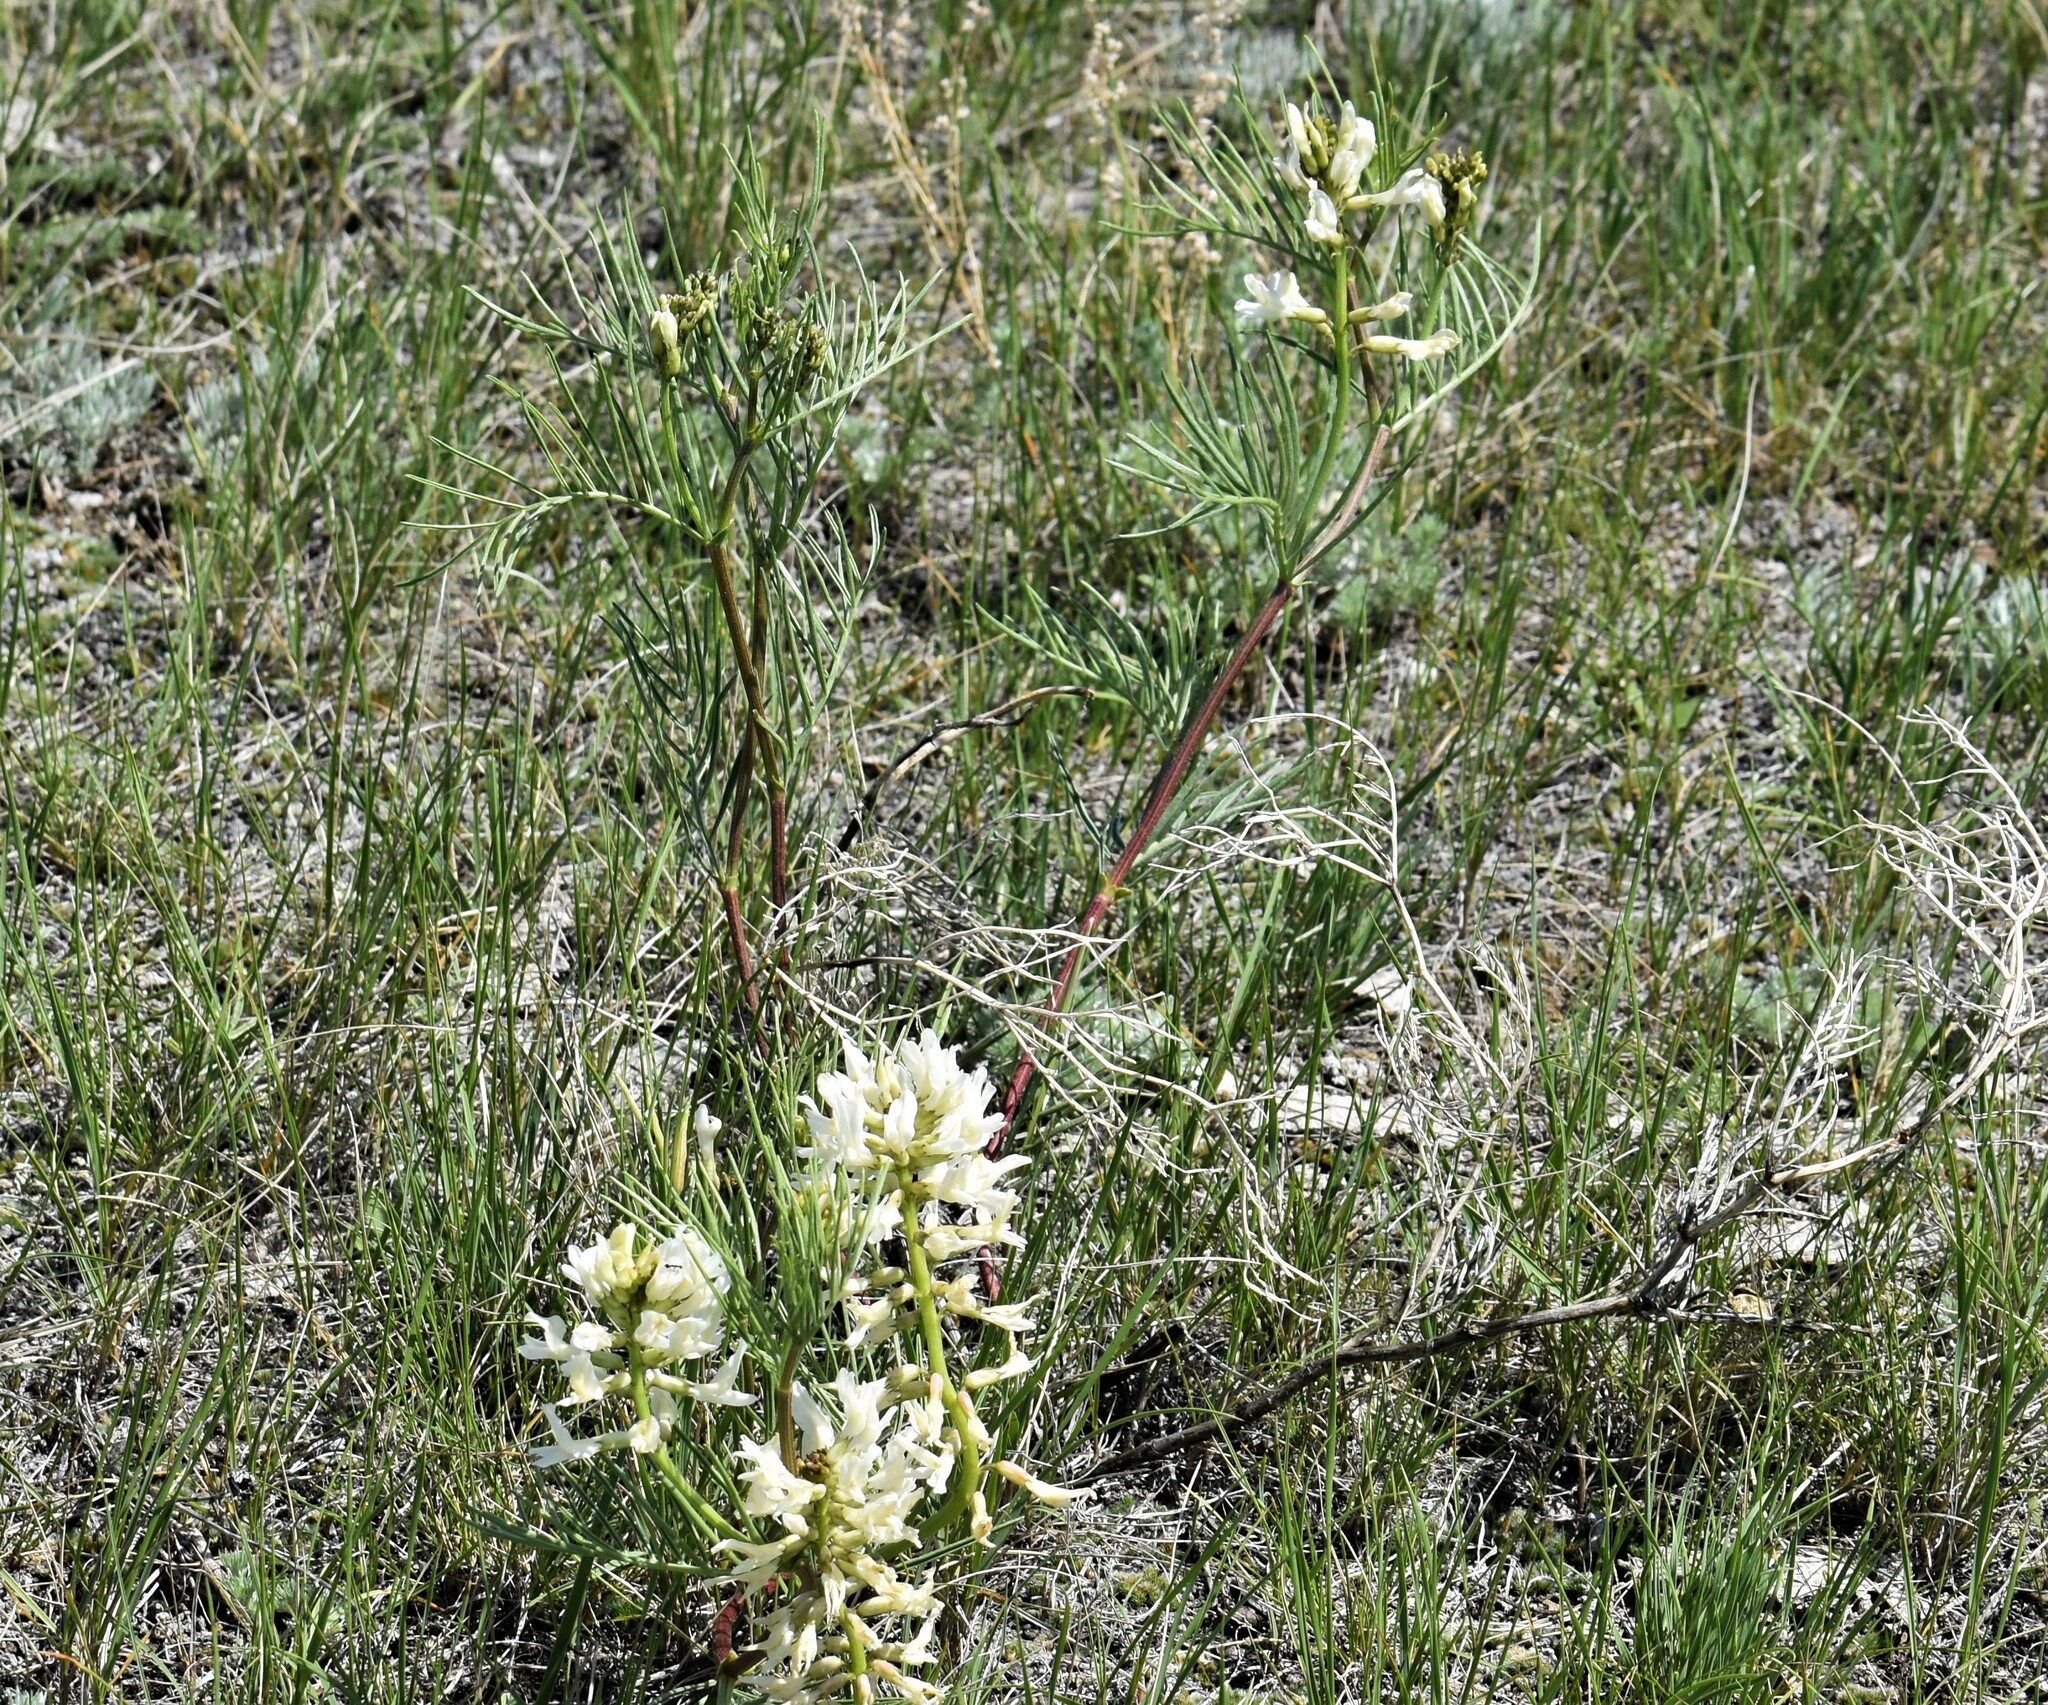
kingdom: Plantae
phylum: Tracheophyta
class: Magnoliopsida
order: Fabales
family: Fabaceae
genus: Astragalus
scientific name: Astragalus pectinatus
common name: Tine-leaf milk-vetch
